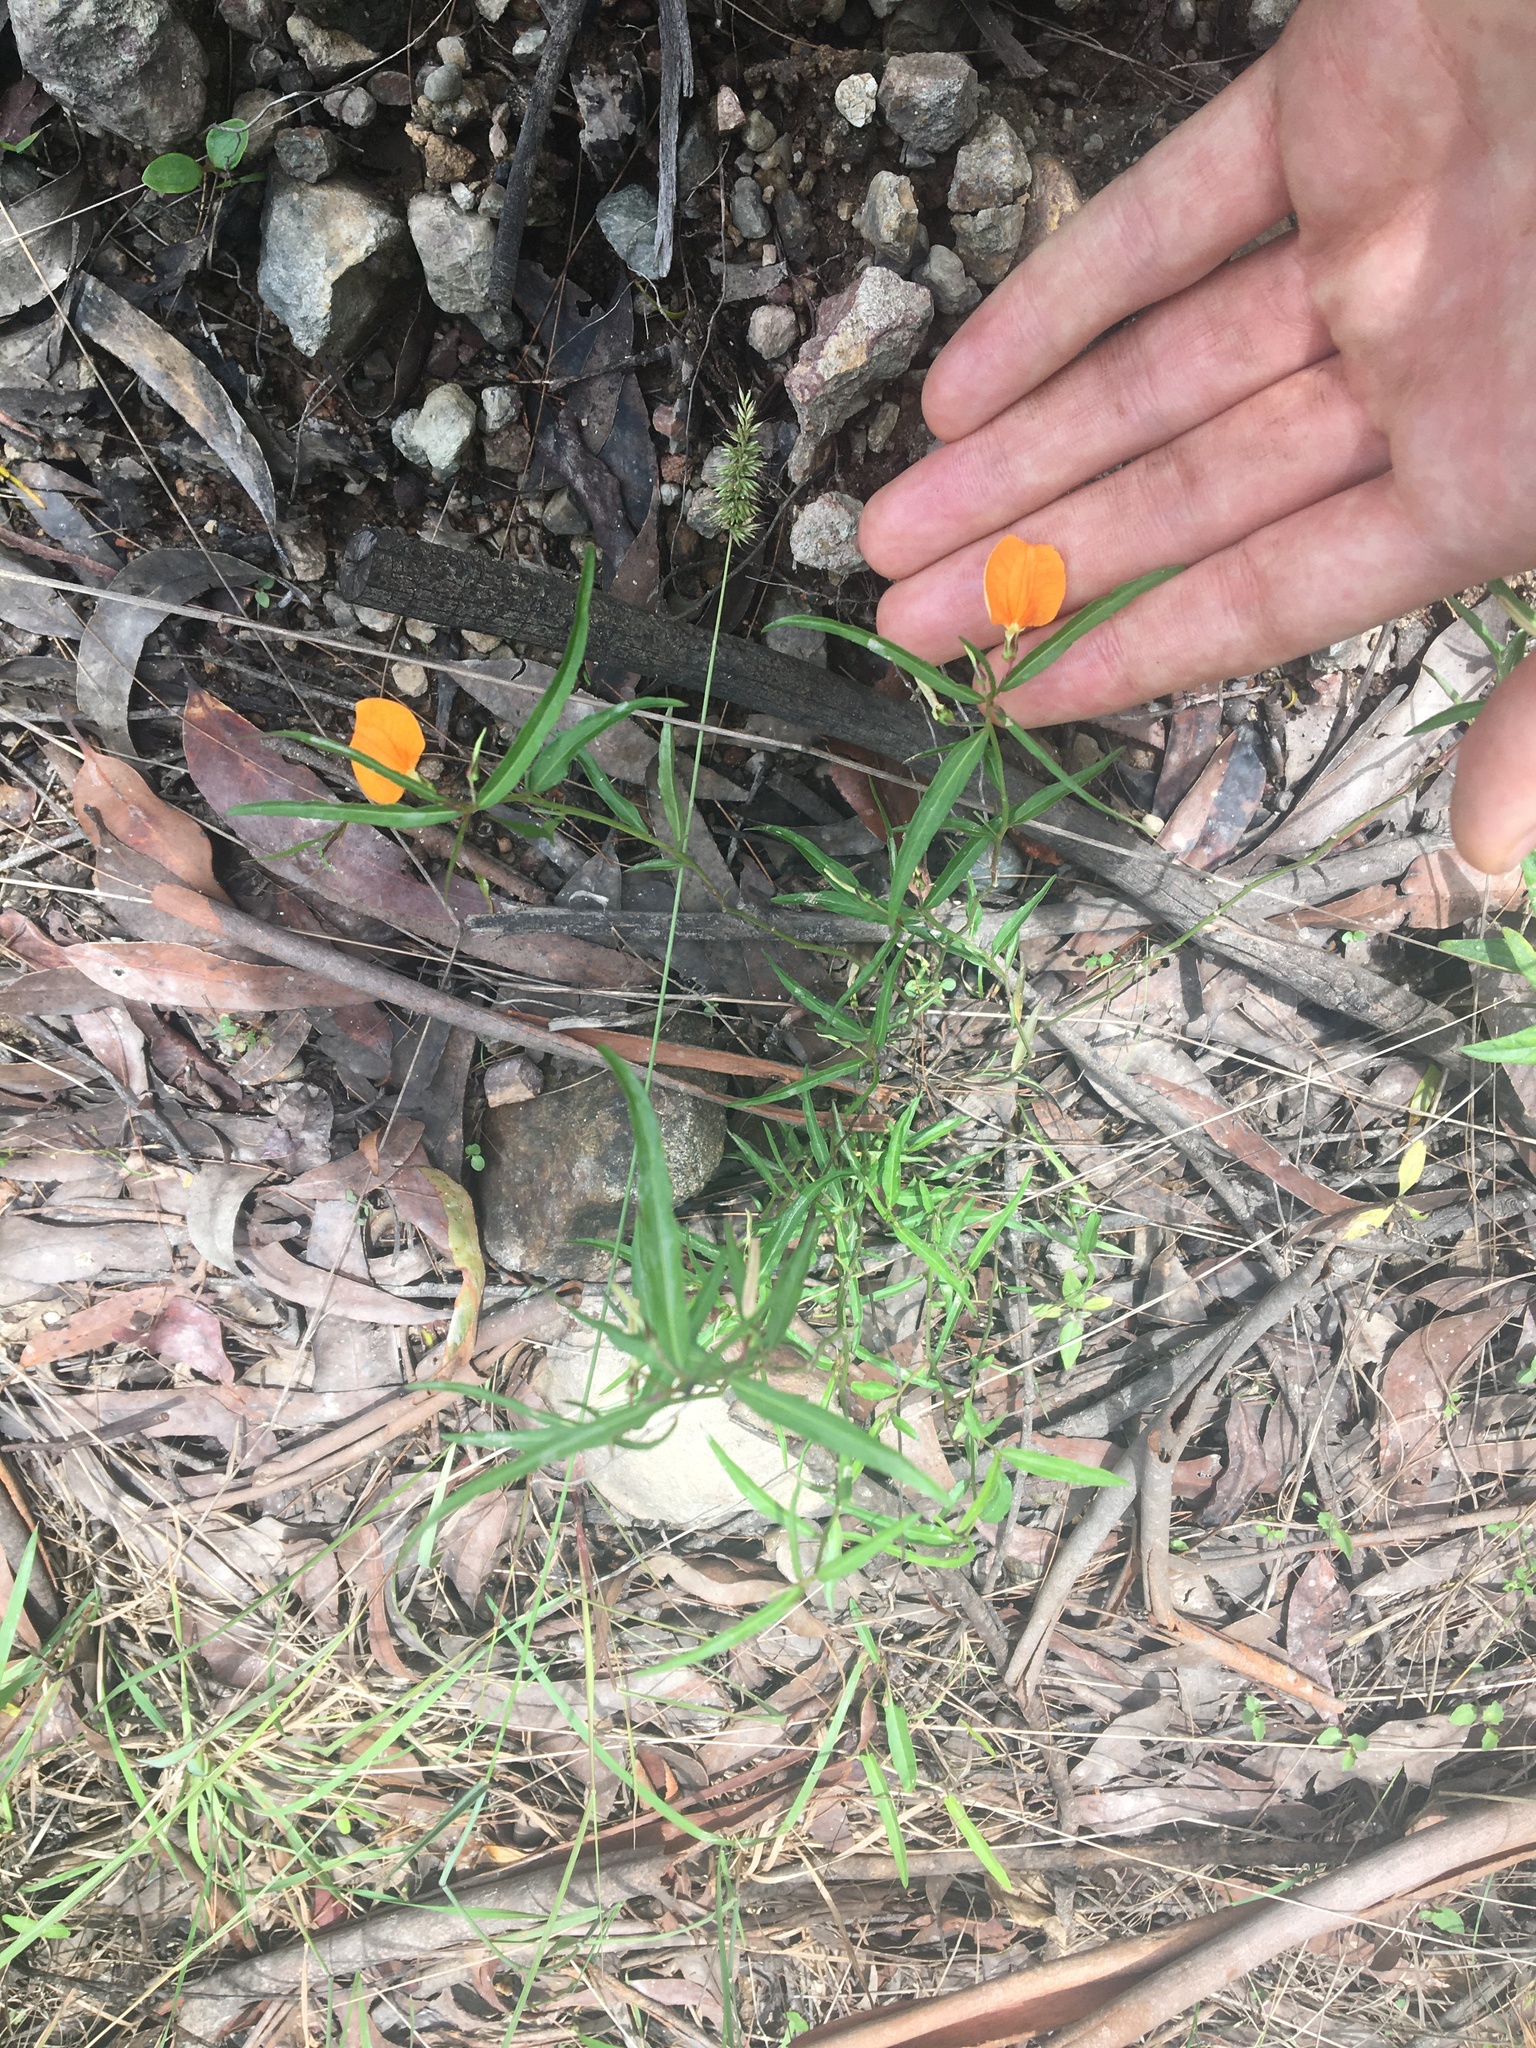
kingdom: Plantae
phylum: Tracheophyta
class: Magnoliopsida
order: Malpighiales
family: Violaceae
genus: Pigea
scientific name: Pigea stellarioides
